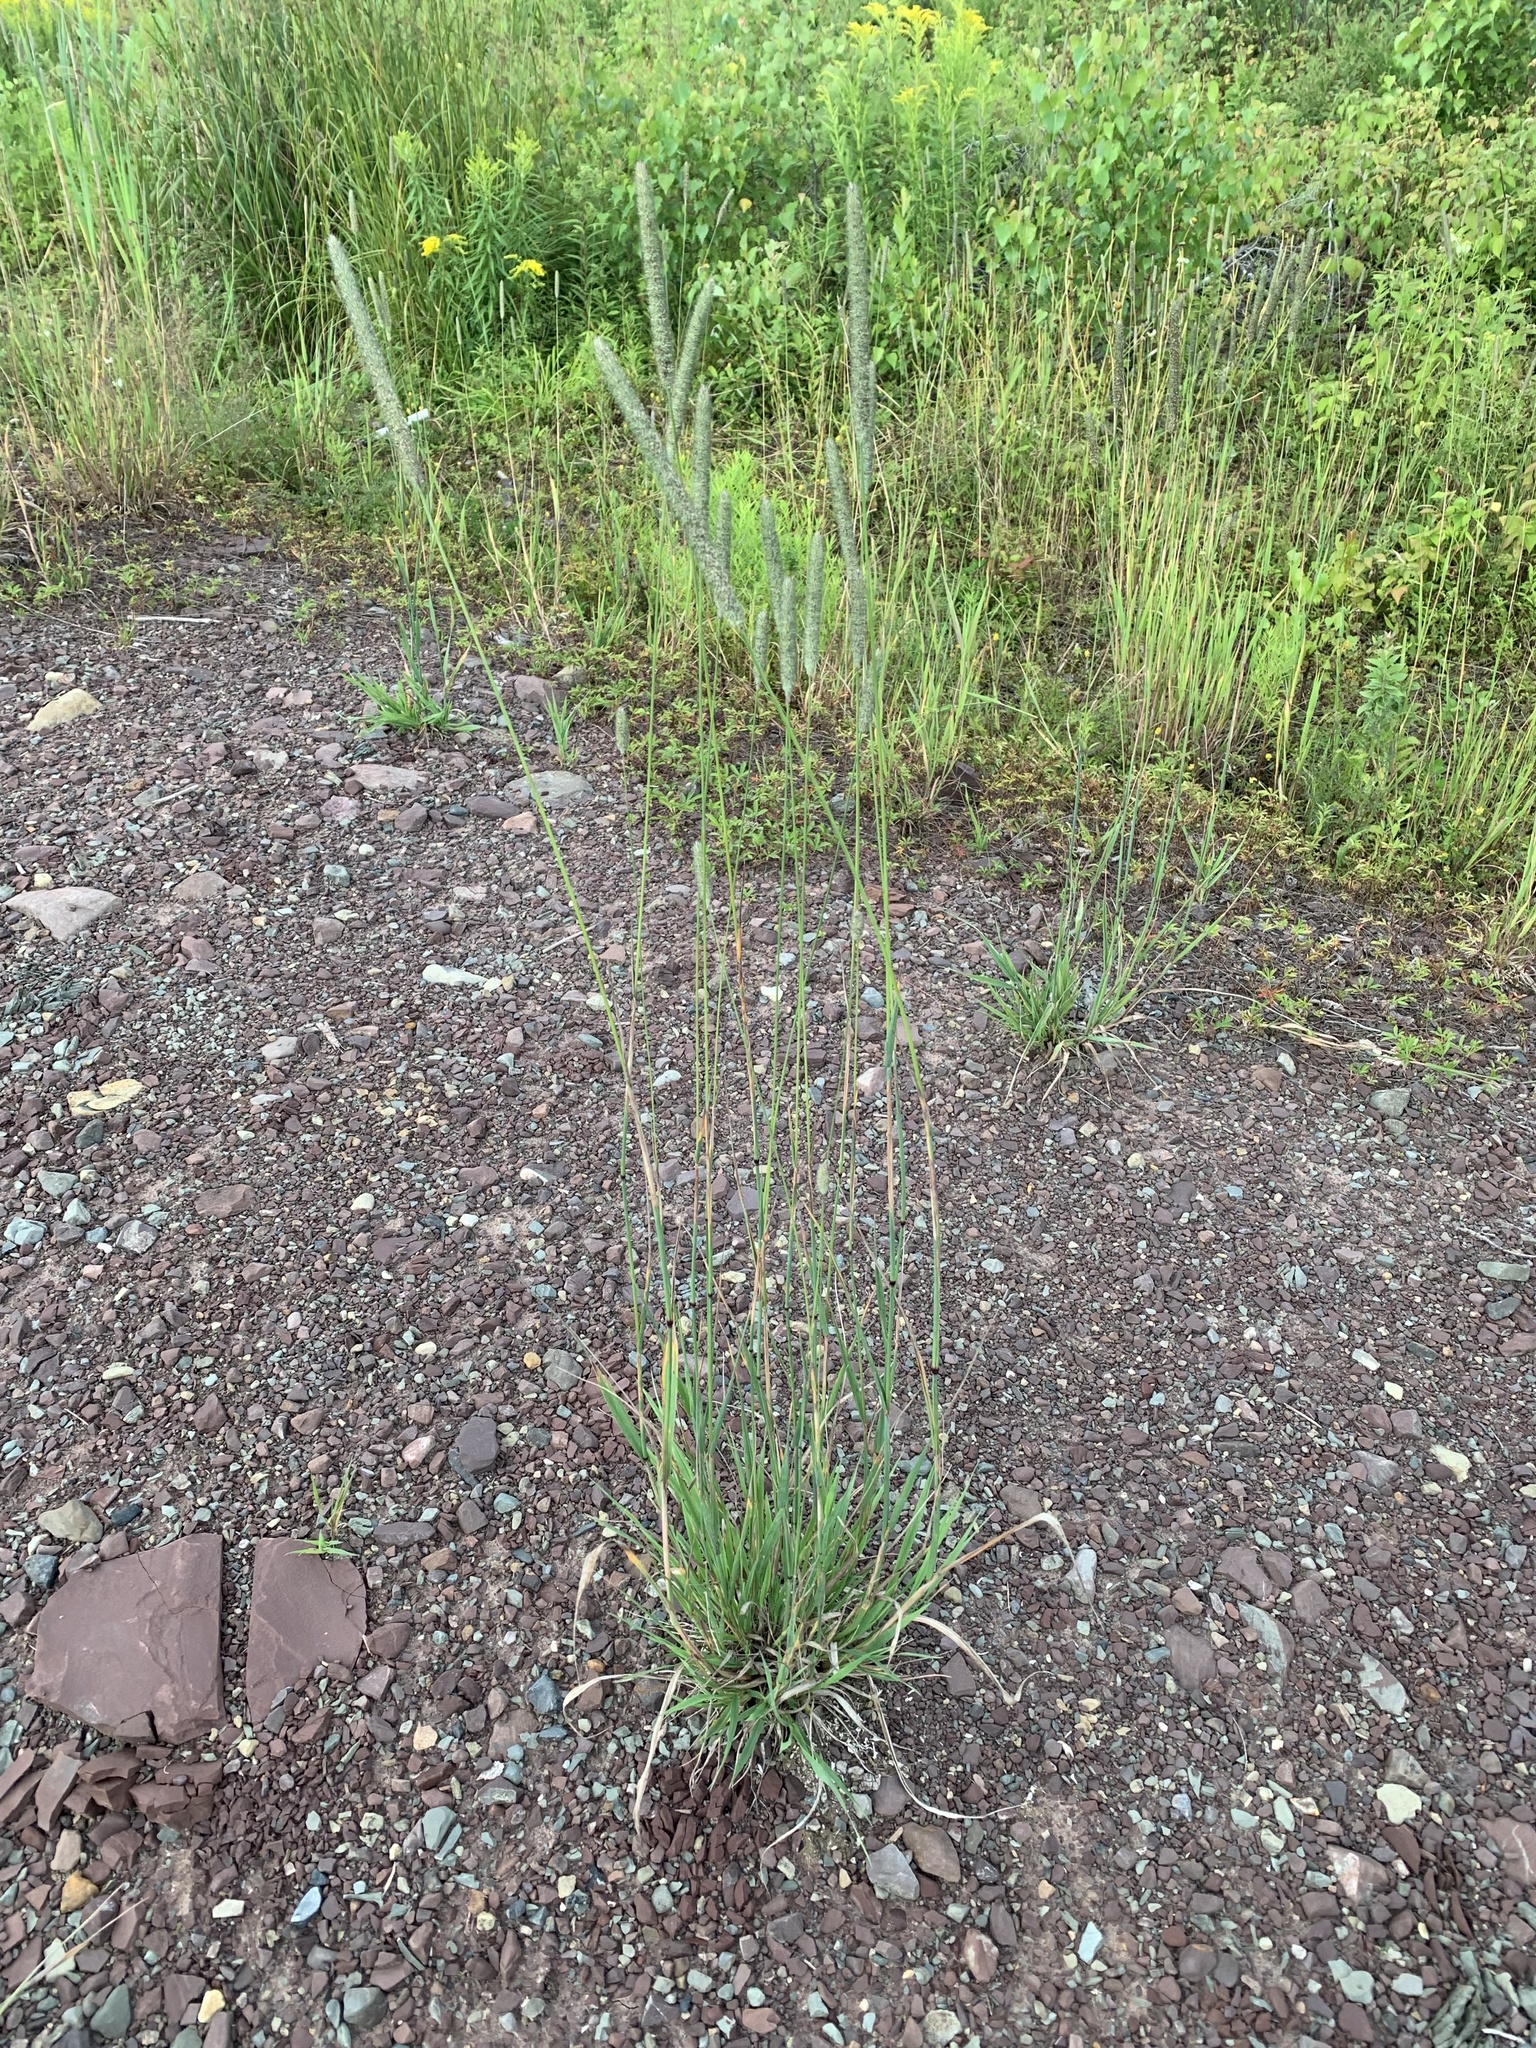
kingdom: Plantae
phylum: Tracheophyta
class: Liliopsida
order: Poales
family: Poaceae
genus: Phleum
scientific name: Phleum pratense
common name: Timothy grass
